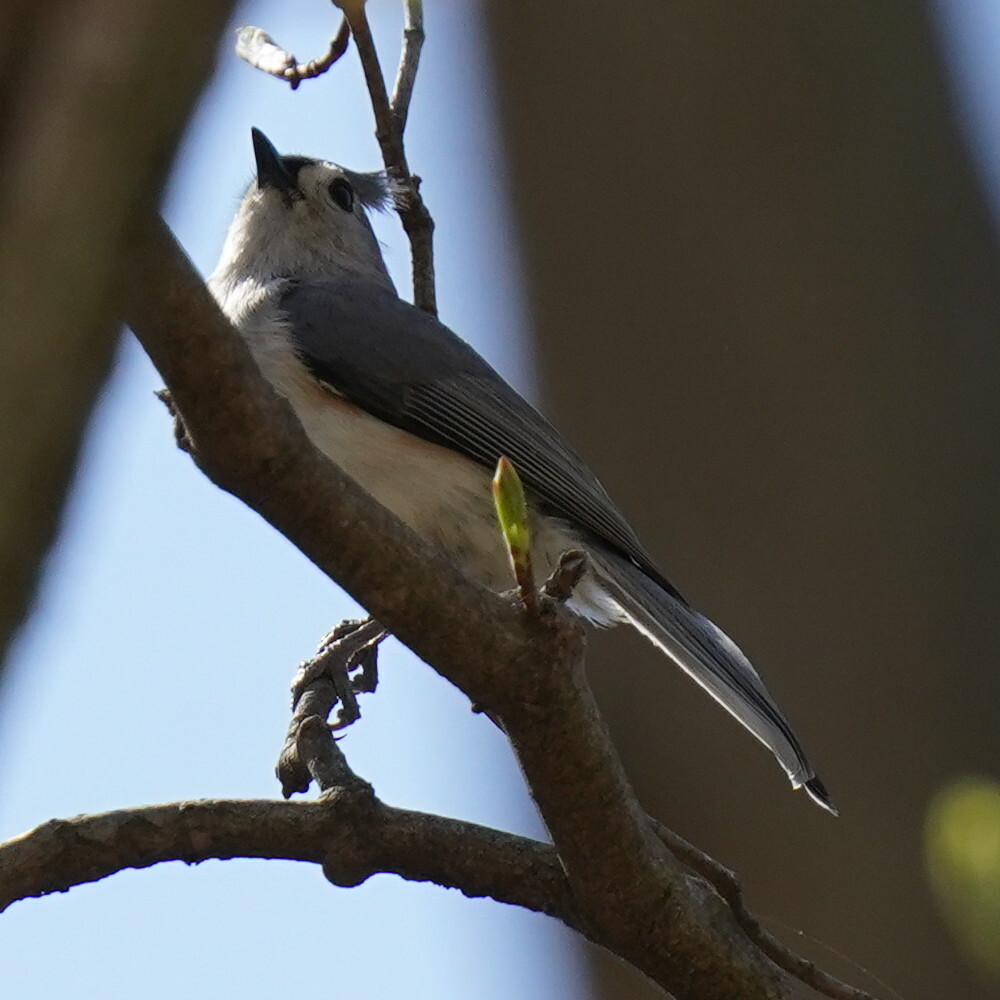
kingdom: Animalia
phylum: Chordata
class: Aves
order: Passeriformes
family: Paridae
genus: Baeolophus
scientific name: Baeolophus bicolor
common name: Tufted titmouse
